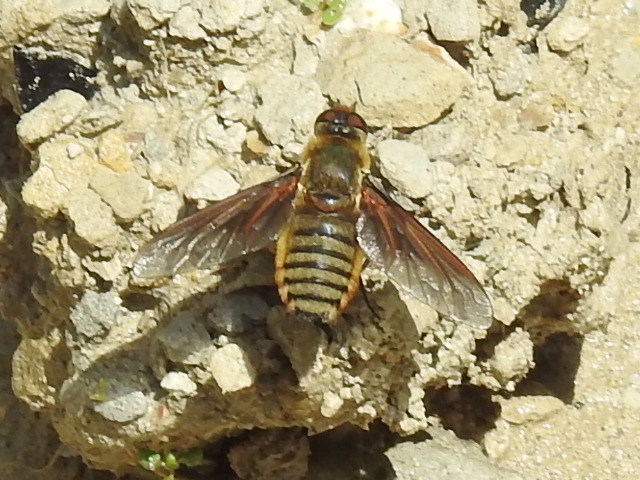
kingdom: Animalia
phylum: Arthropoda
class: Insecta
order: Diptera
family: Bombyliidae
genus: Poecilanthrax
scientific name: Poecilanthrax lucifer
